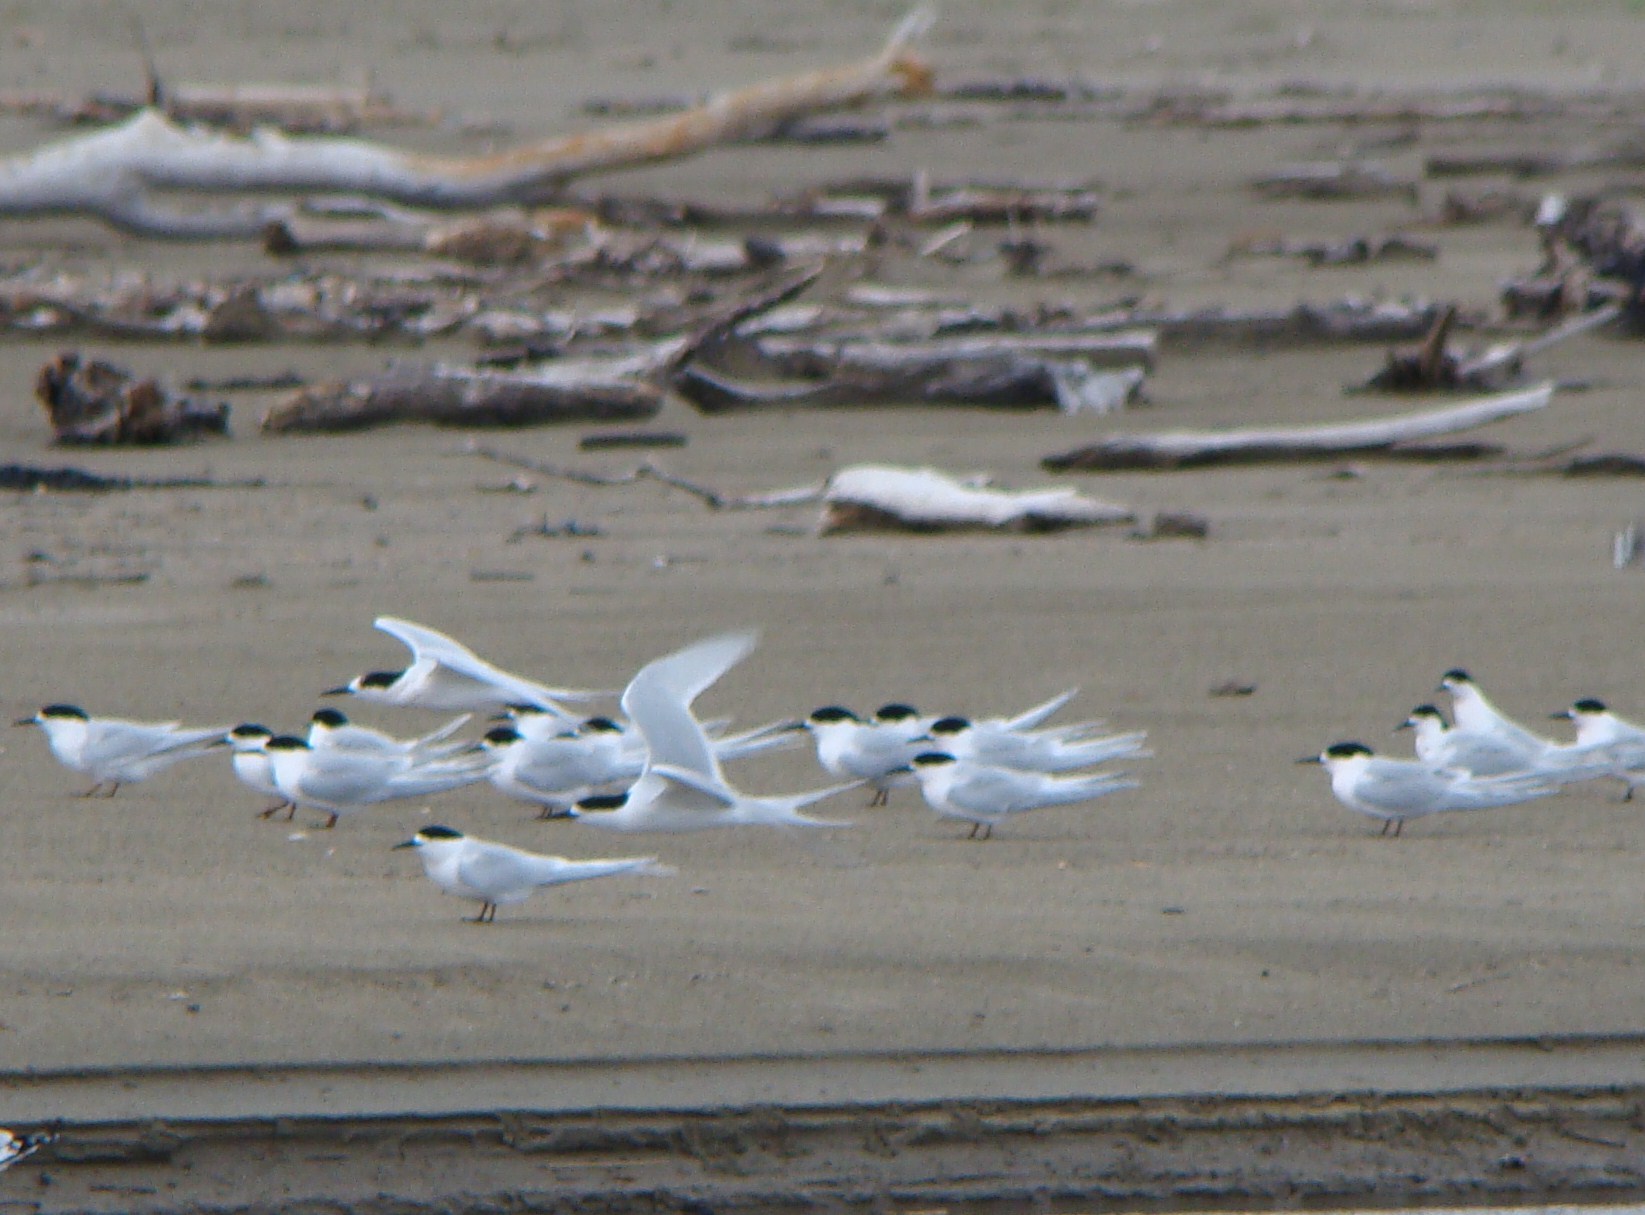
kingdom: Animalia
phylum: Chordata
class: Aves
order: Charadriiformes
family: Laridae
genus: Sterna
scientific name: Sterna striata
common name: White-fronted tern
